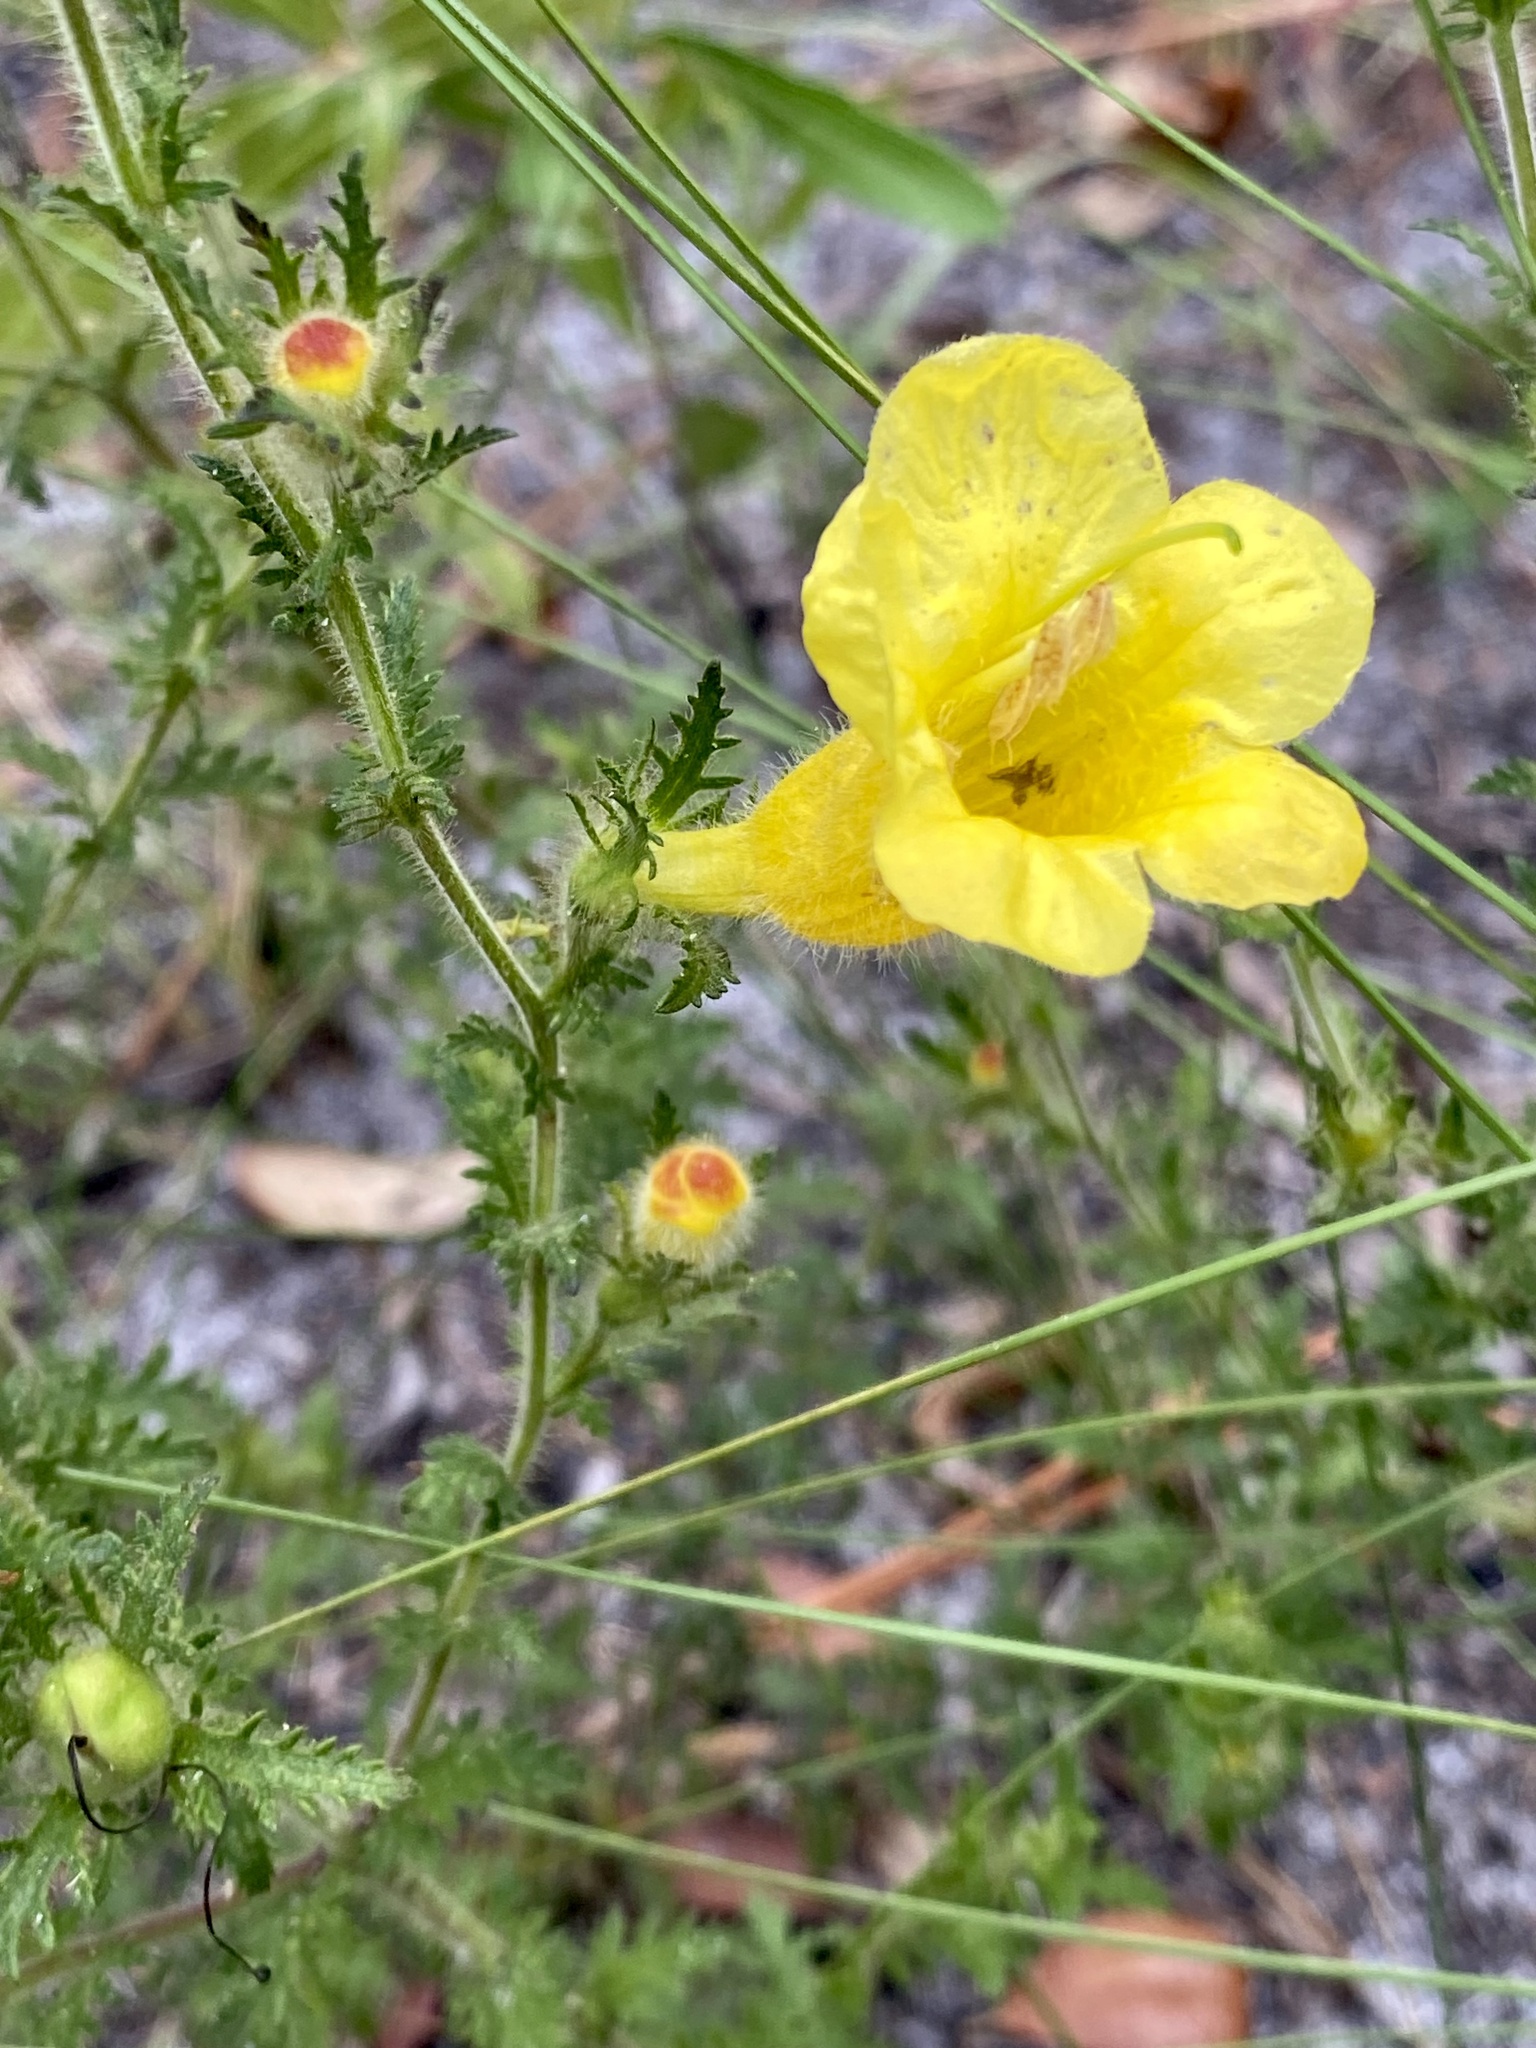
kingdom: Plantae
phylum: Tracheophyta
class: Magnoliopsida
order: Lamiales
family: Orobanchaceae
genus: Aureolaria
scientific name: Aureolaria pectinata
